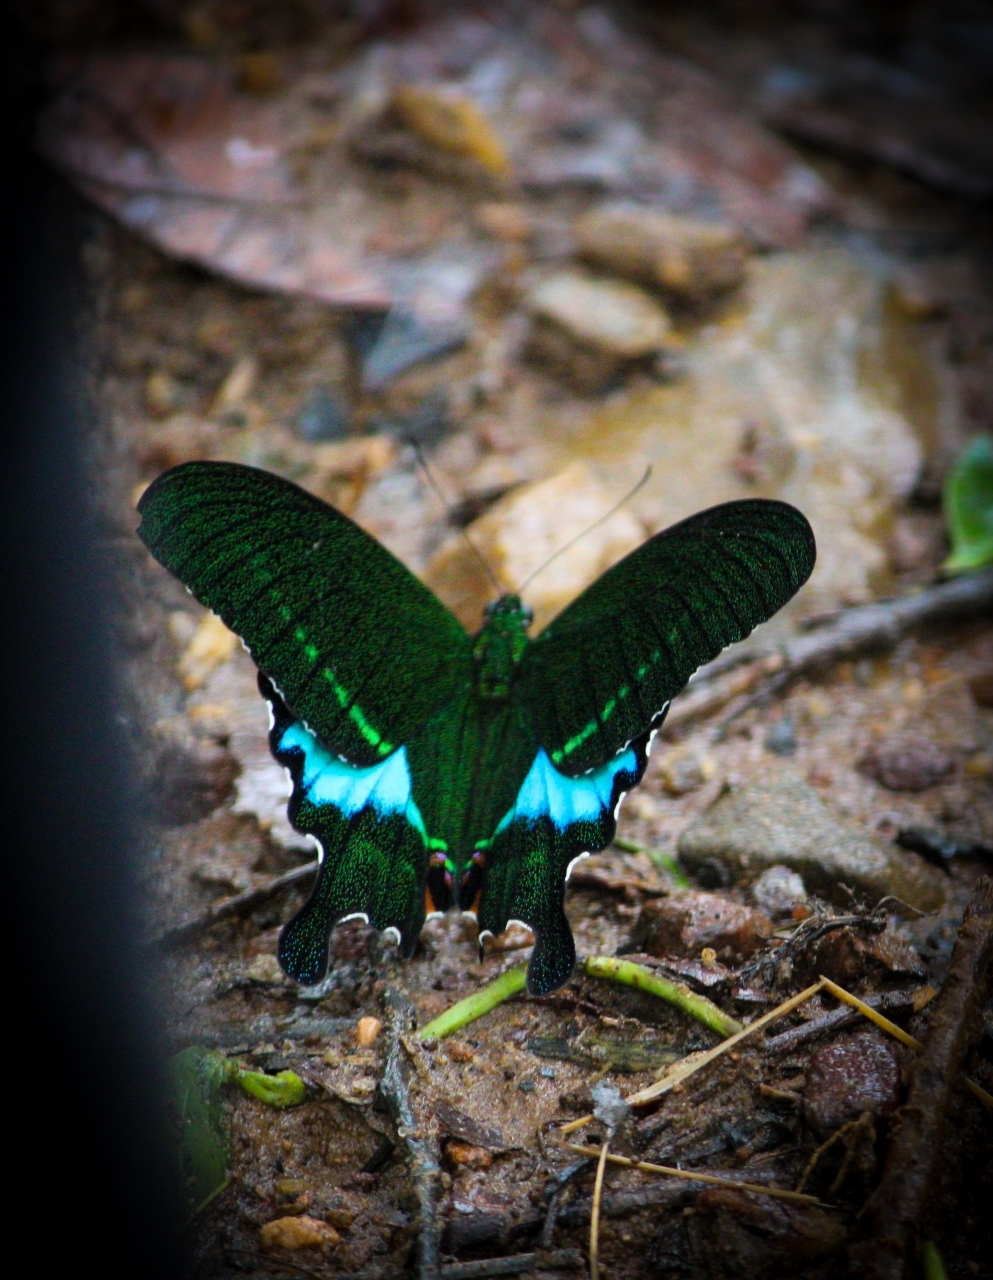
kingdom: Animalia
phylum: Arthropoda
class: Insecta
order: Lepidoptera
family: Papilionidae
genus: Papilio
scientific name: Papilio paris
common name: Paris peacock
